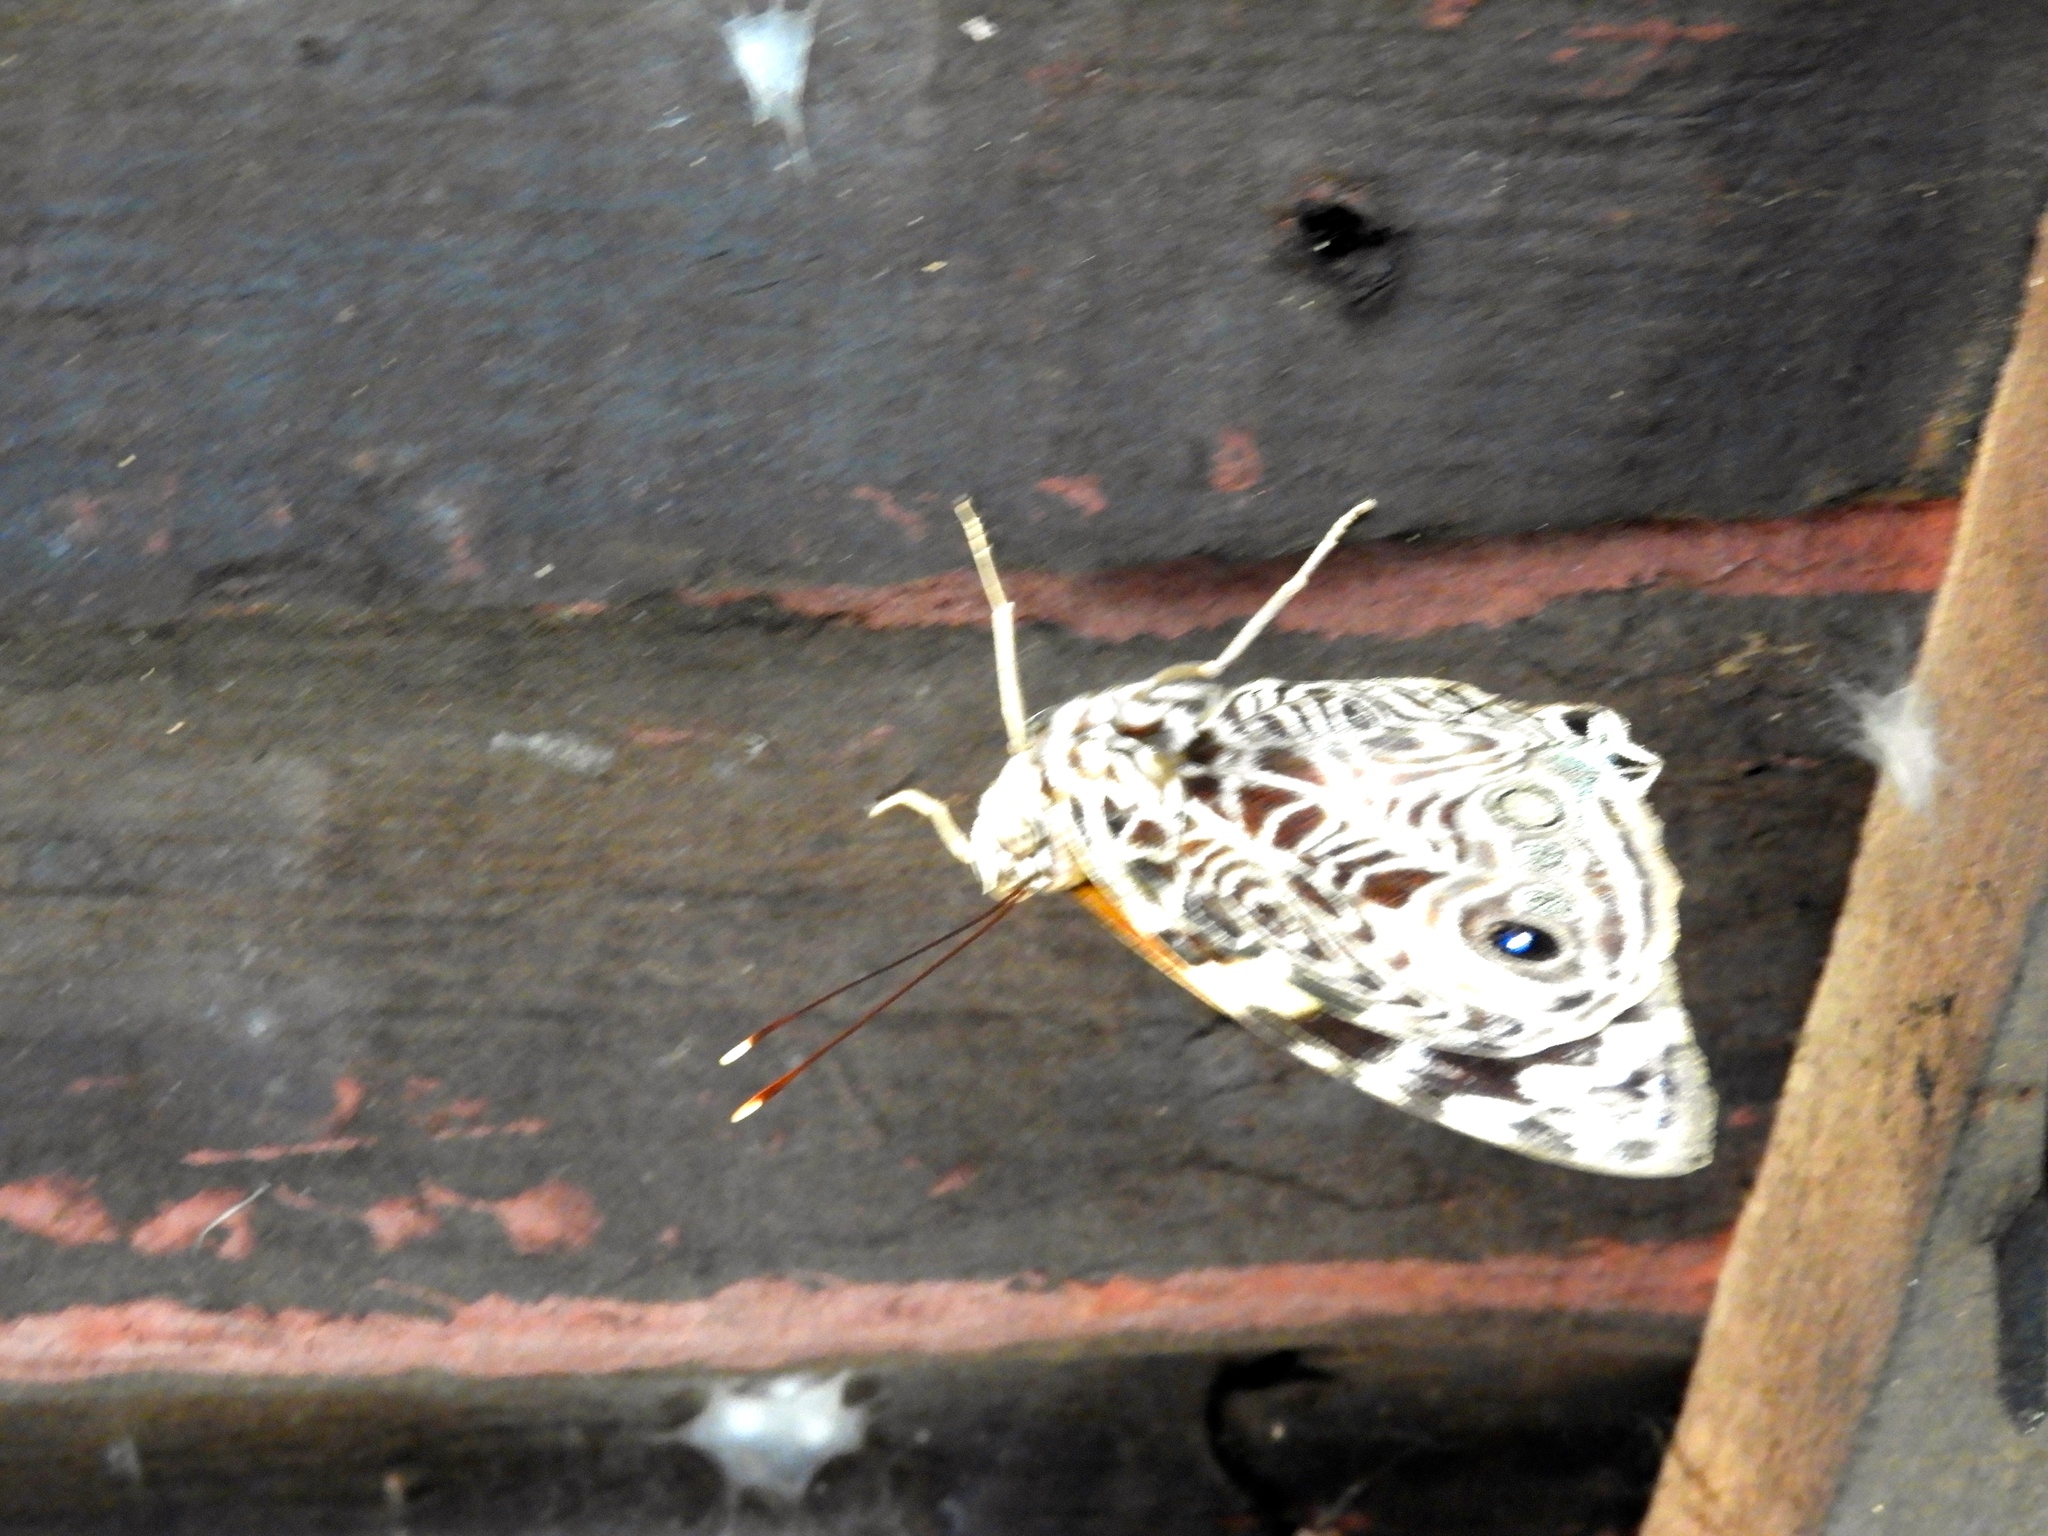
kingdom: Animalia
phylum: Arthropoda
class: Insecta
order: Lepidoptera
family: Nymphalidae
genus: Smyrna
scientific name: Smyrna blomfildia
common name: Blomfild's beauty
